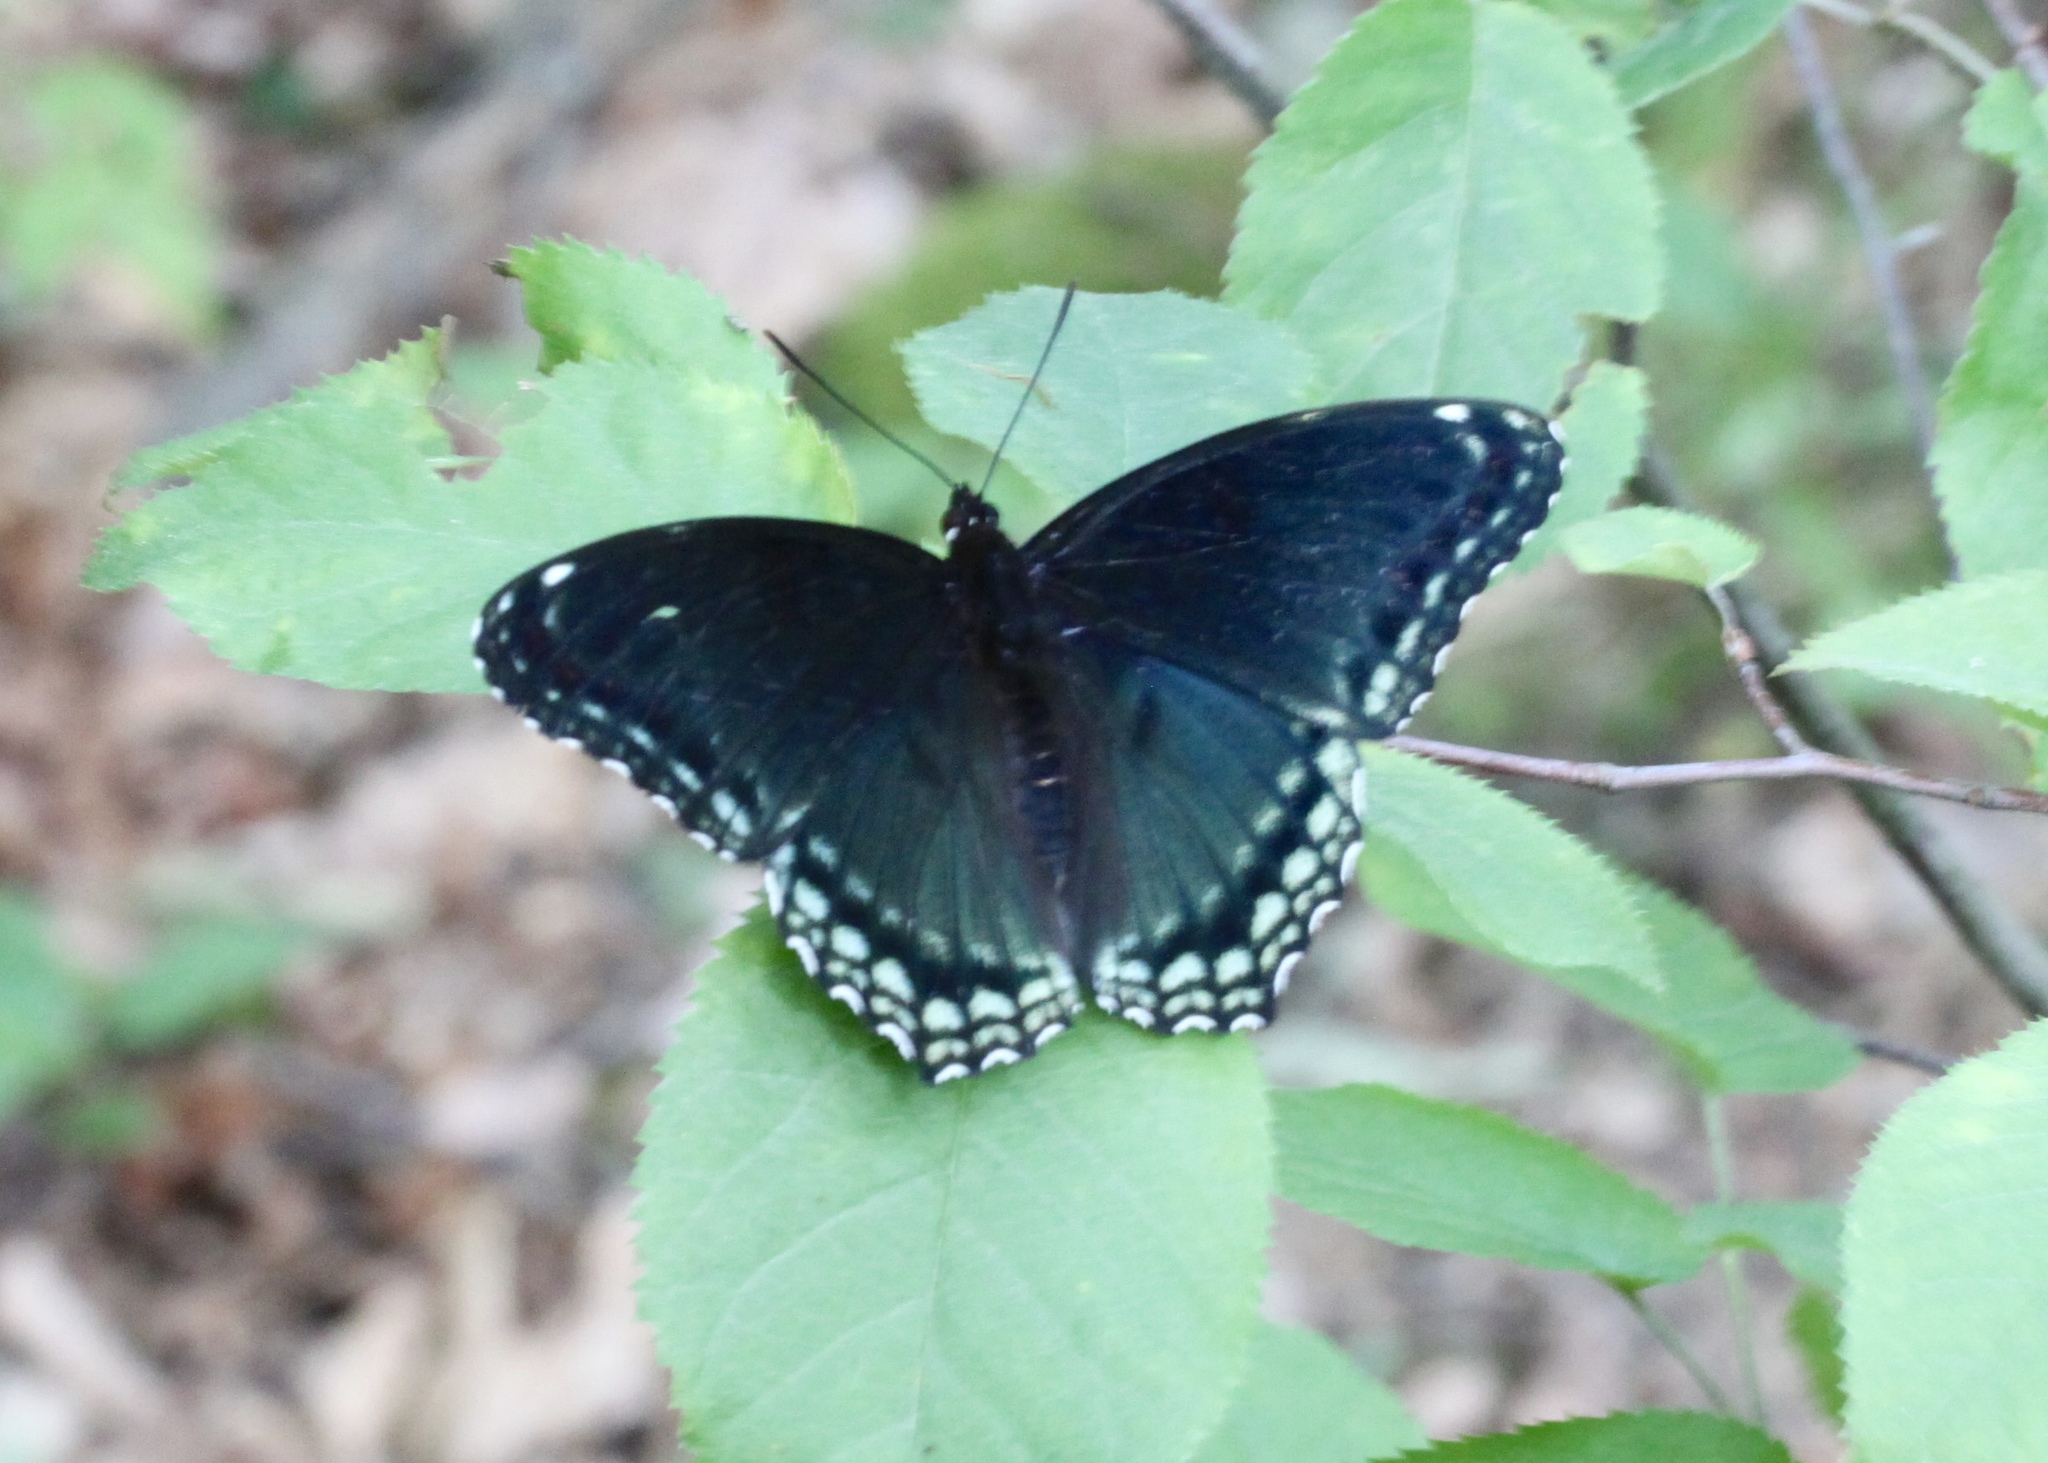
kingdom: Animalia
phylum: Arthropoda
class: Insecta
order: Lepidoptera
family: Nymphalidae
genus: Limenitis
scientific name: Limenitis astyanax
